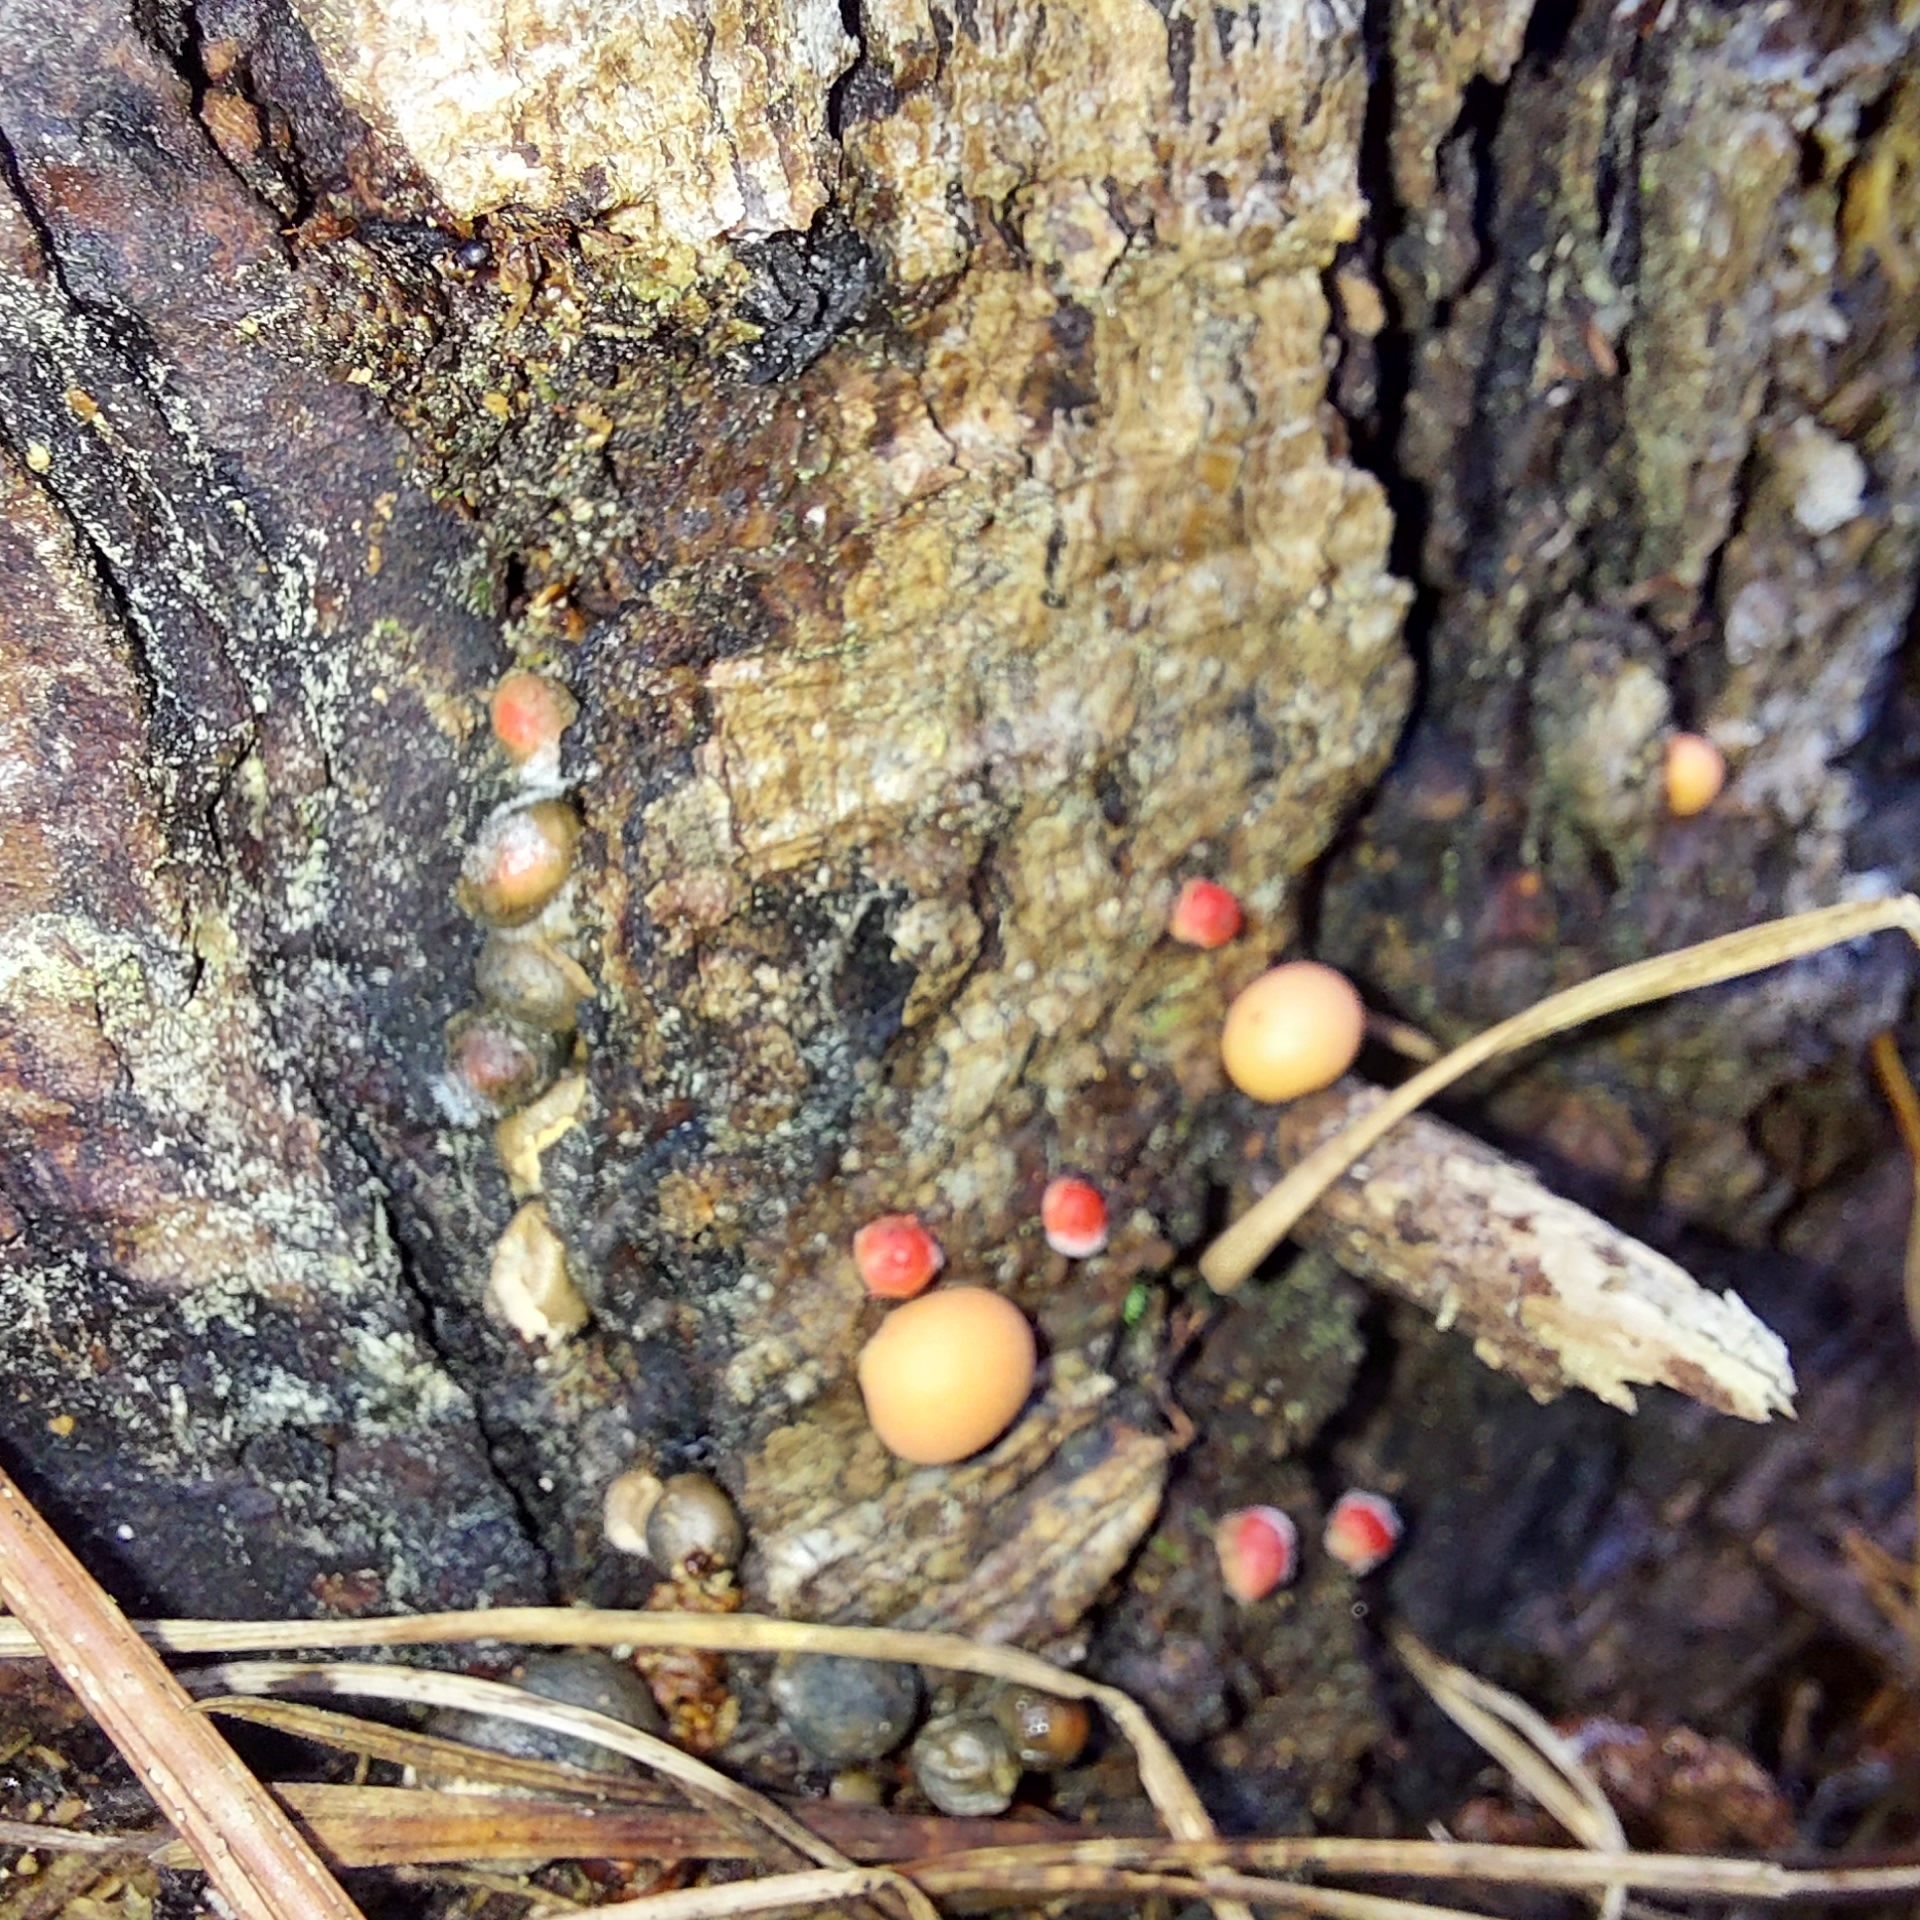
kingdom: Protozoa
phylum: Mycetozoa
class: Myxomycetes
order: Cribrariales
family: Tubiferaceae
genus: Lycogala
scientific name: Lycogala epidendrum
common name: Wolf's milk
